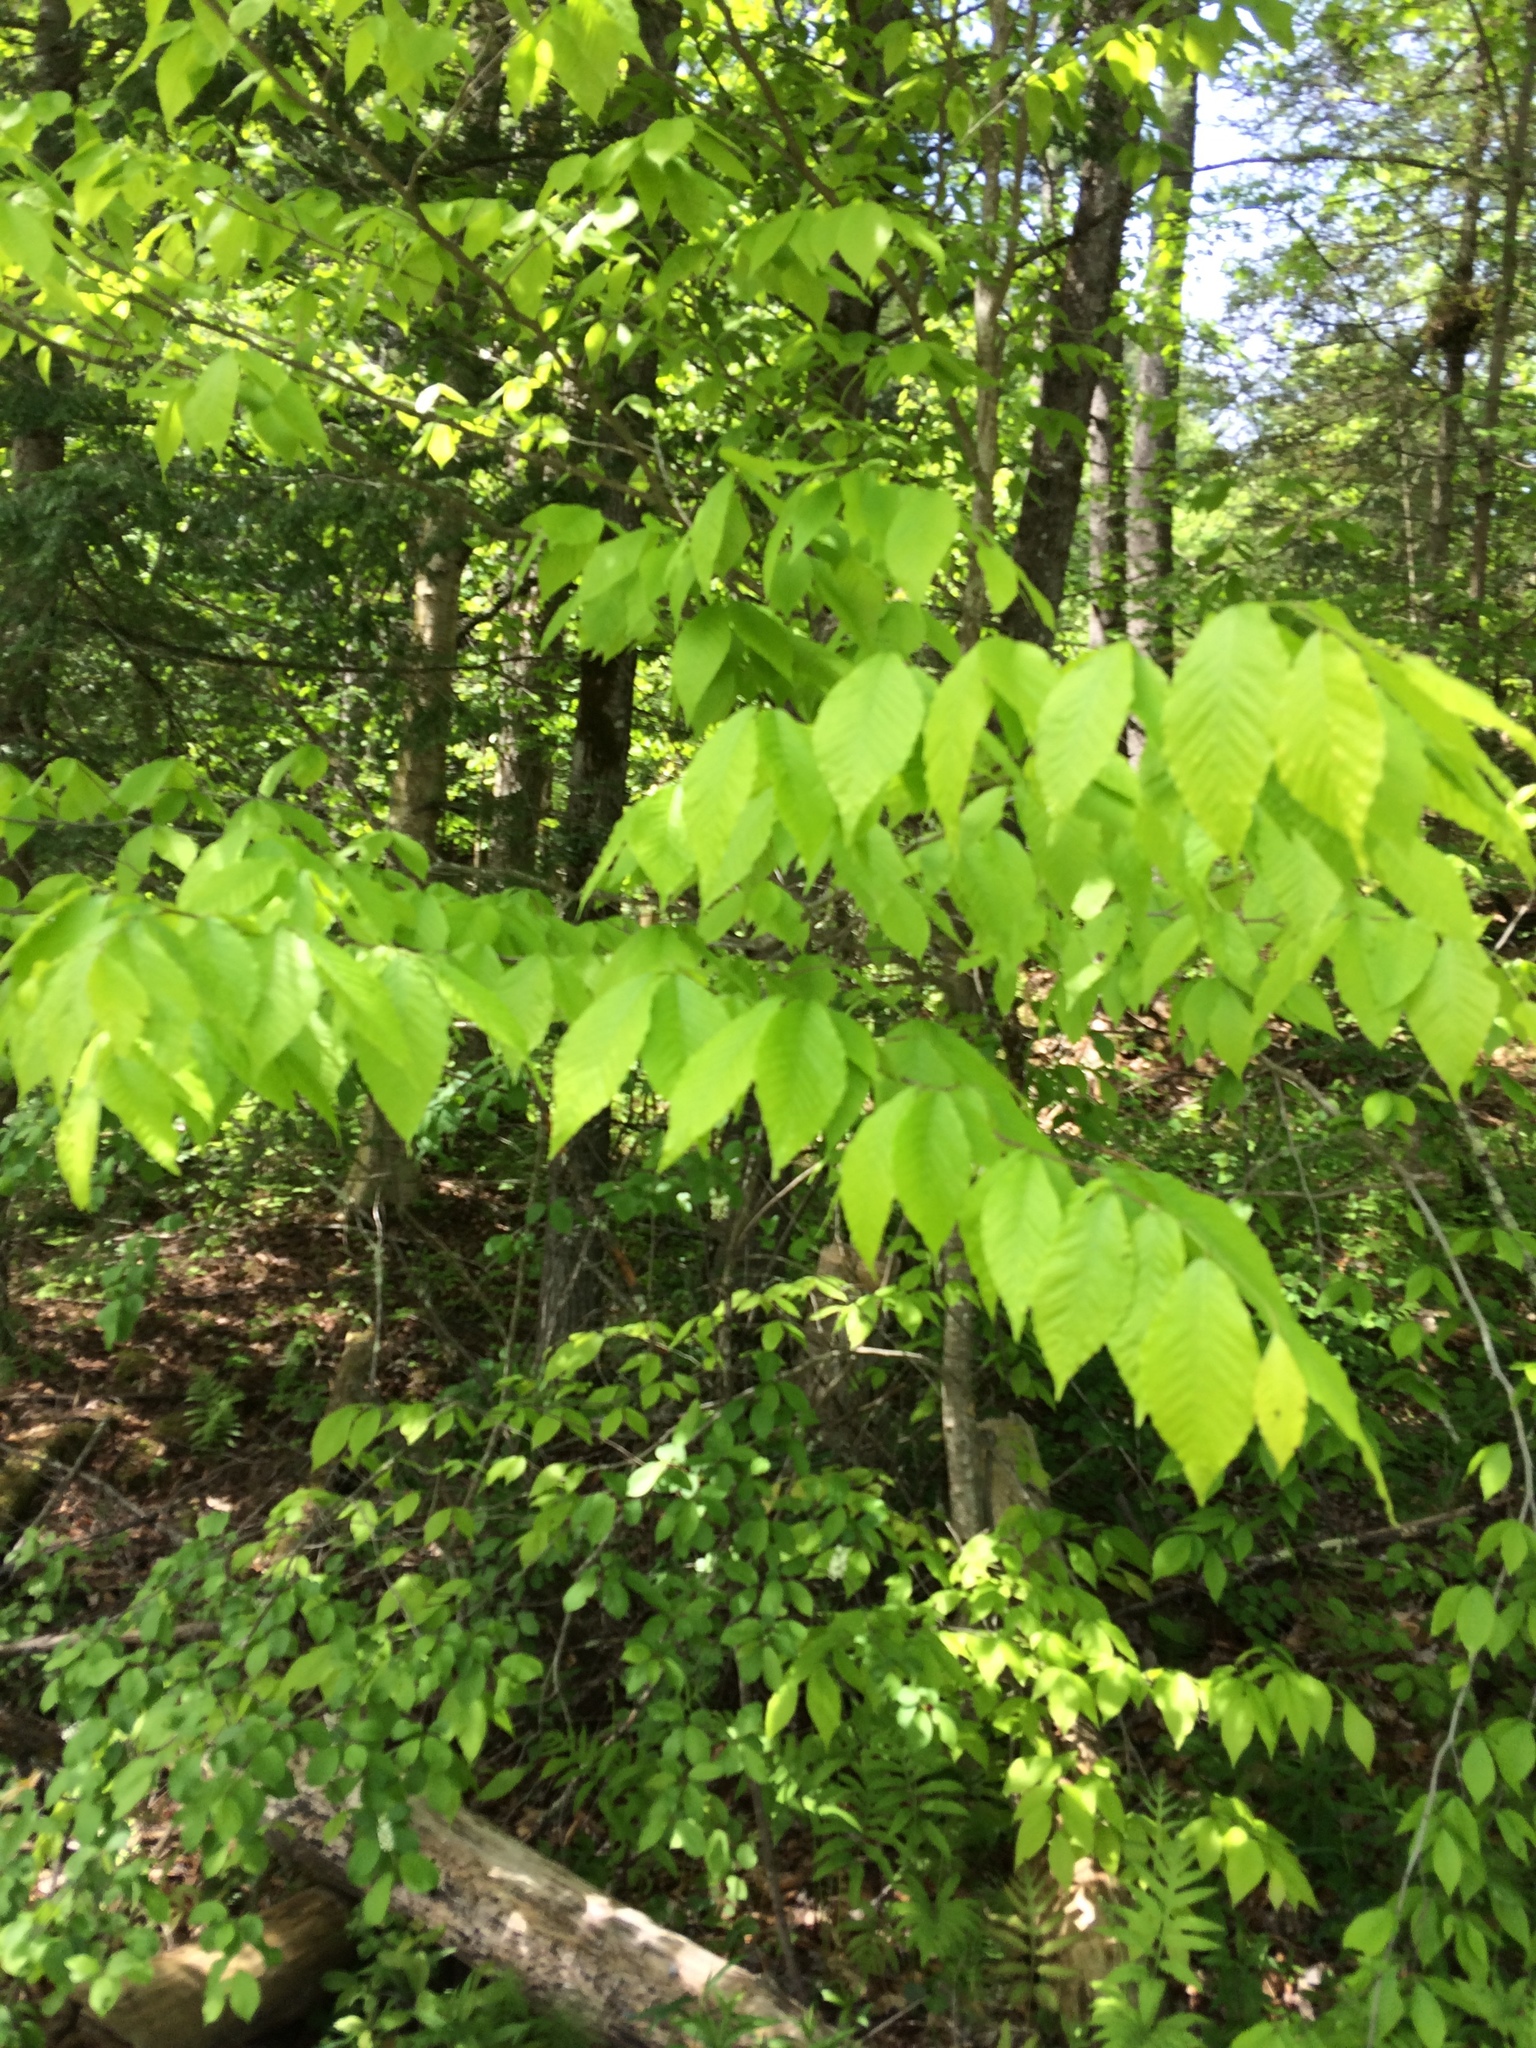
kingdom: Plantae
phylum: Tracheophyta
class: Magnoliopsida
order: Fagales
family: Fagaceae
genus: Fagus
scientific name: Fagus grandifolia
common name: American beech
